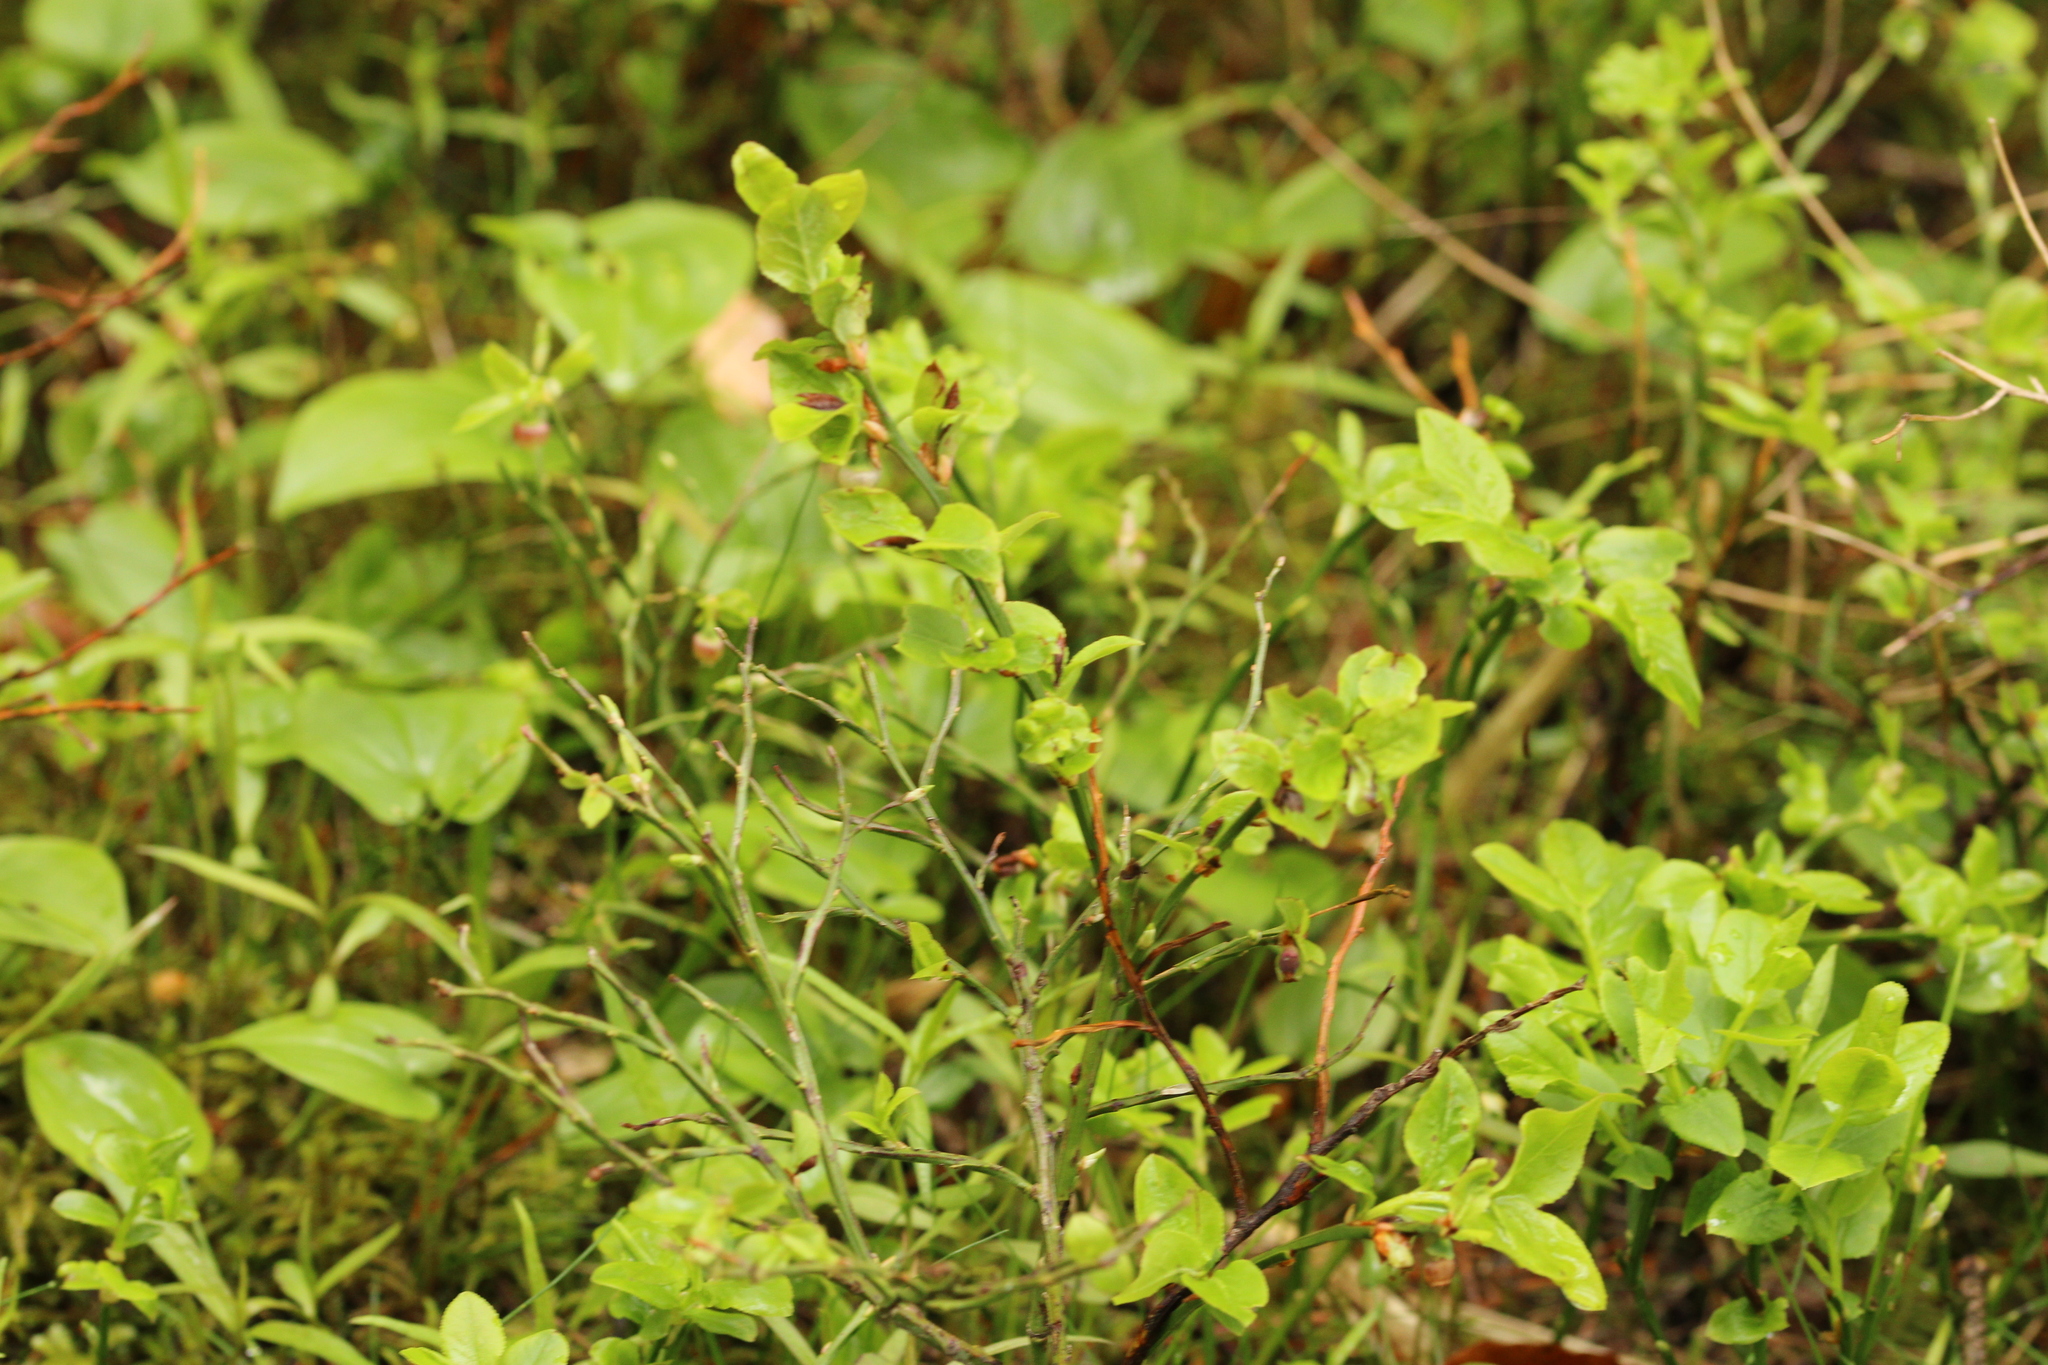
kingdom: Plantae
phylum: Tracheophyta
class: Magnoliopsida
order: Ericales
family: Ericaceae
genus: Vaccinium
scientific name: Vaccinium myrtillus
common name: Bilberry
